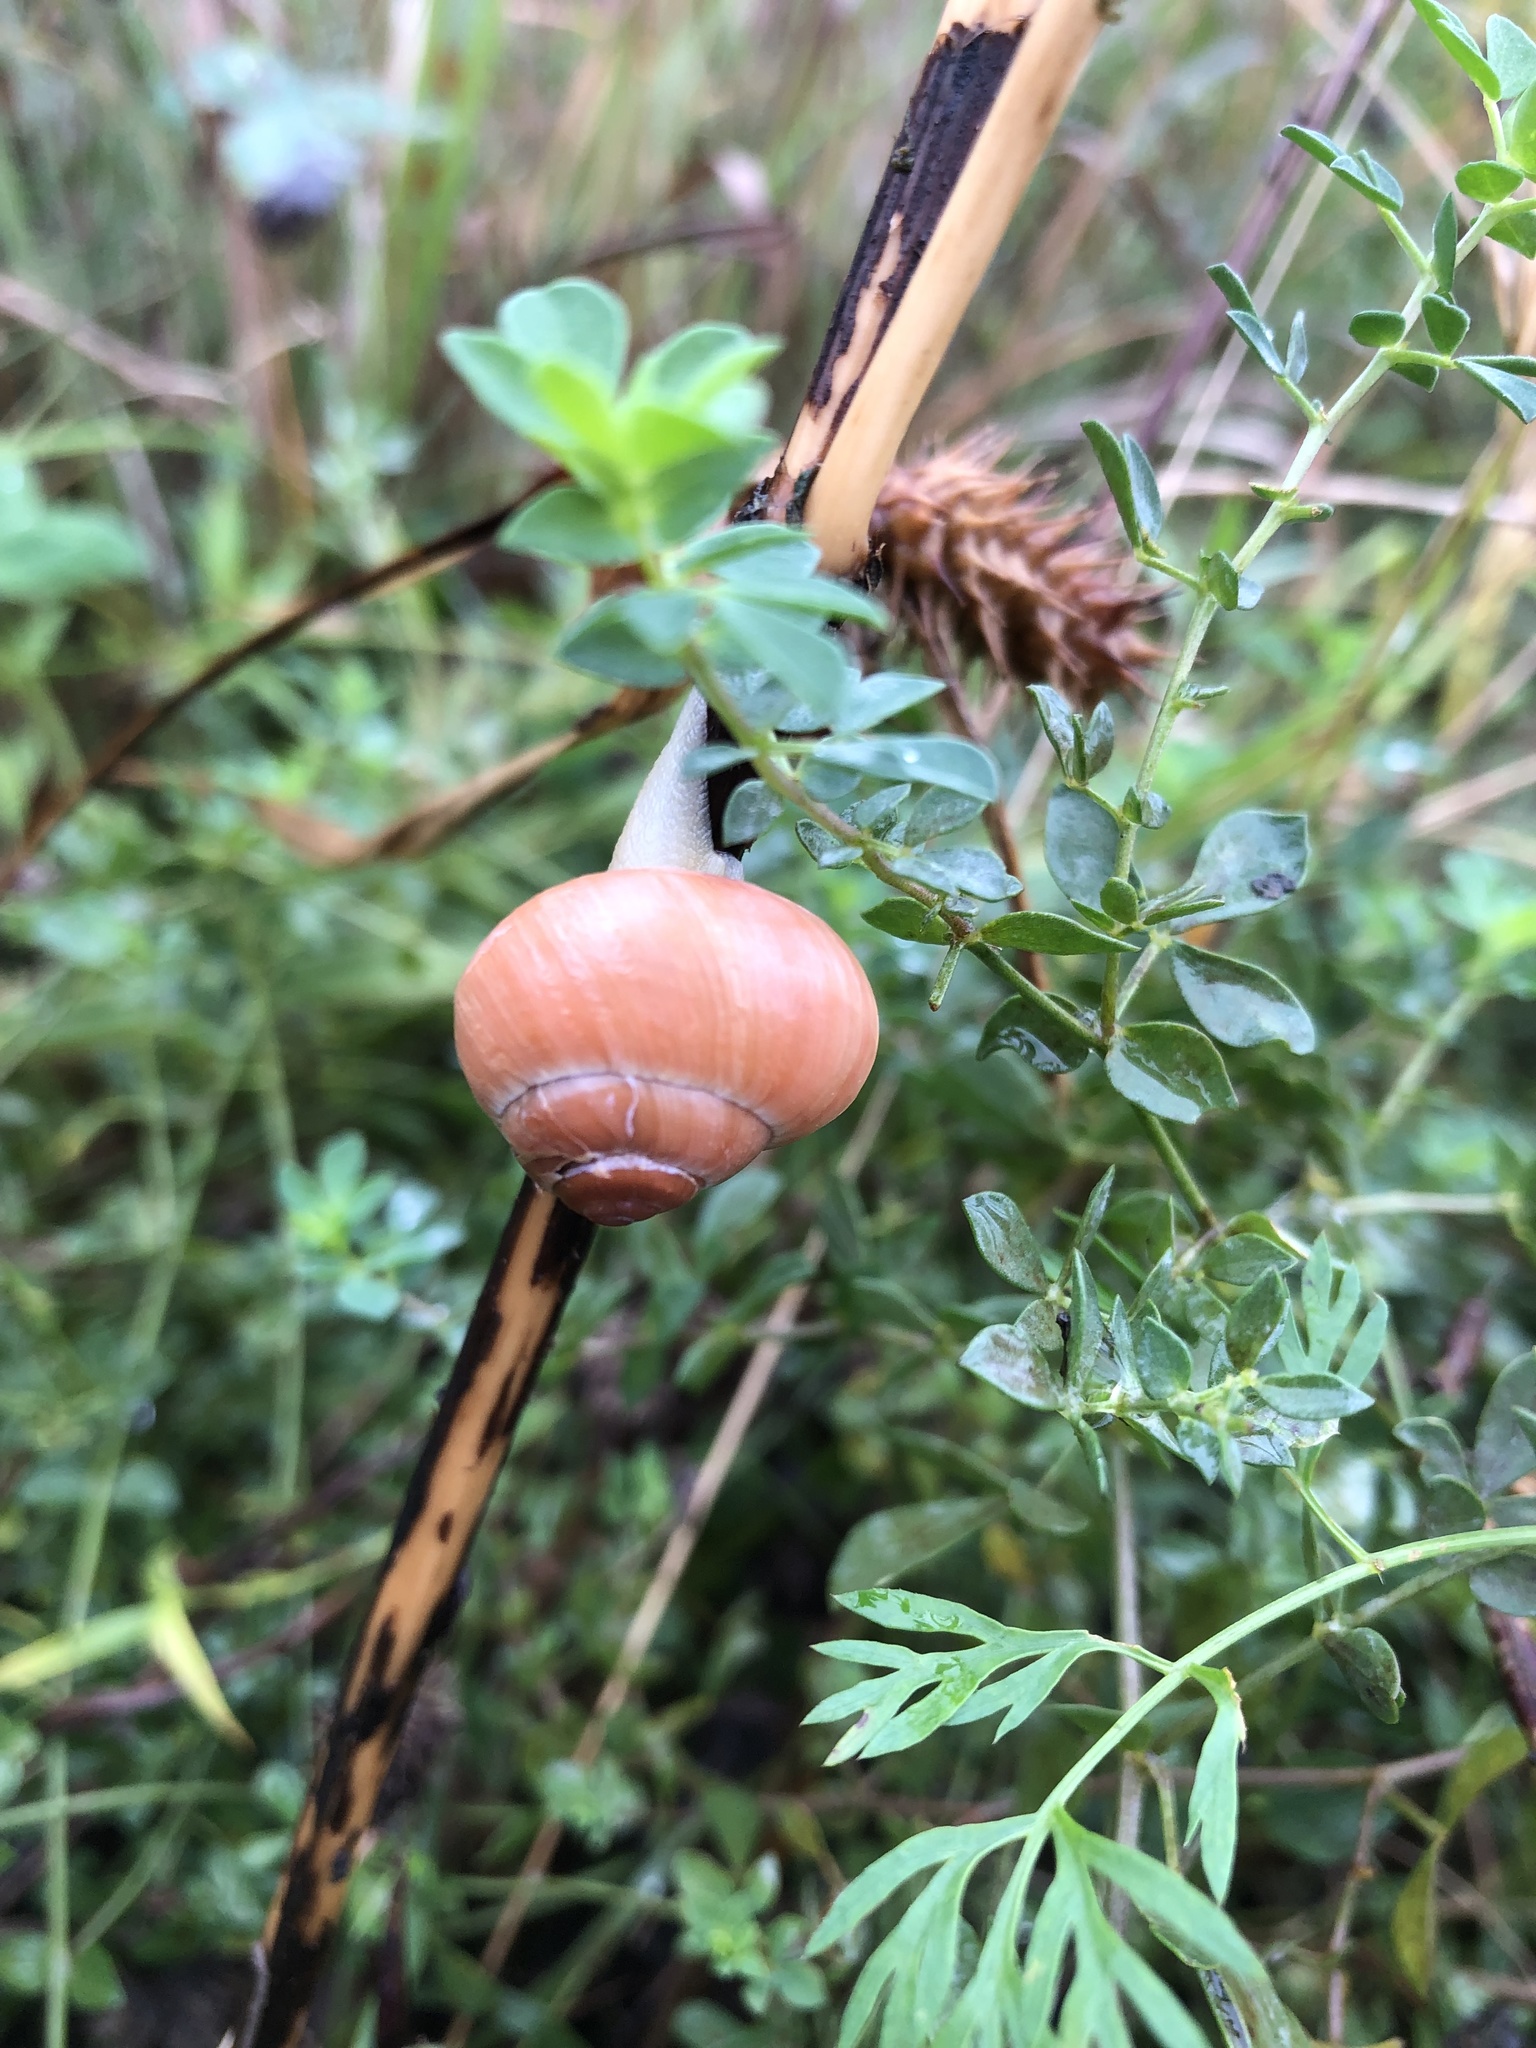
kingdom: Animalia
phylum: Mollusca
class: Gastropoda
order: Stylommatophora
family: Helicidae
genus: Cepaea
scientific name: Cepaea
